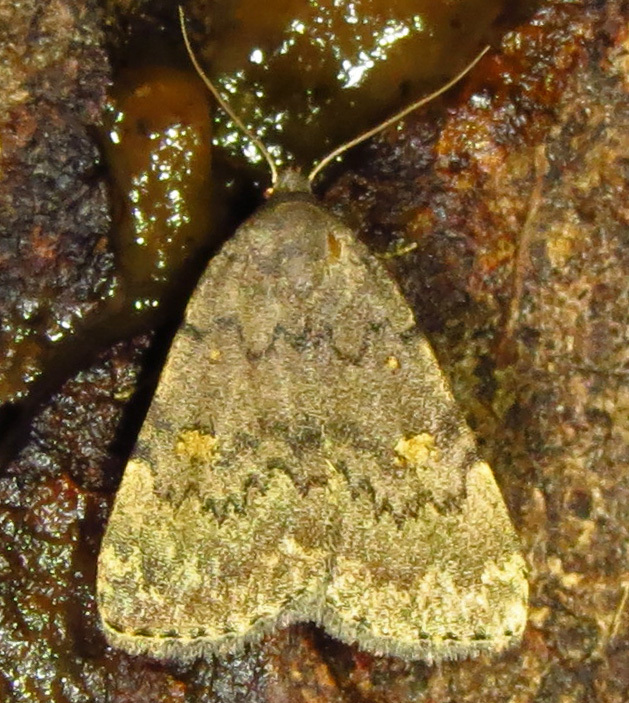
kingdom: Animalia
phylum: Arthropoda
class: Insecta
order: Lepidoptera
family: Erebidae
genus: Idia
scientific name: Idia aemula
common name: Common idia moth
